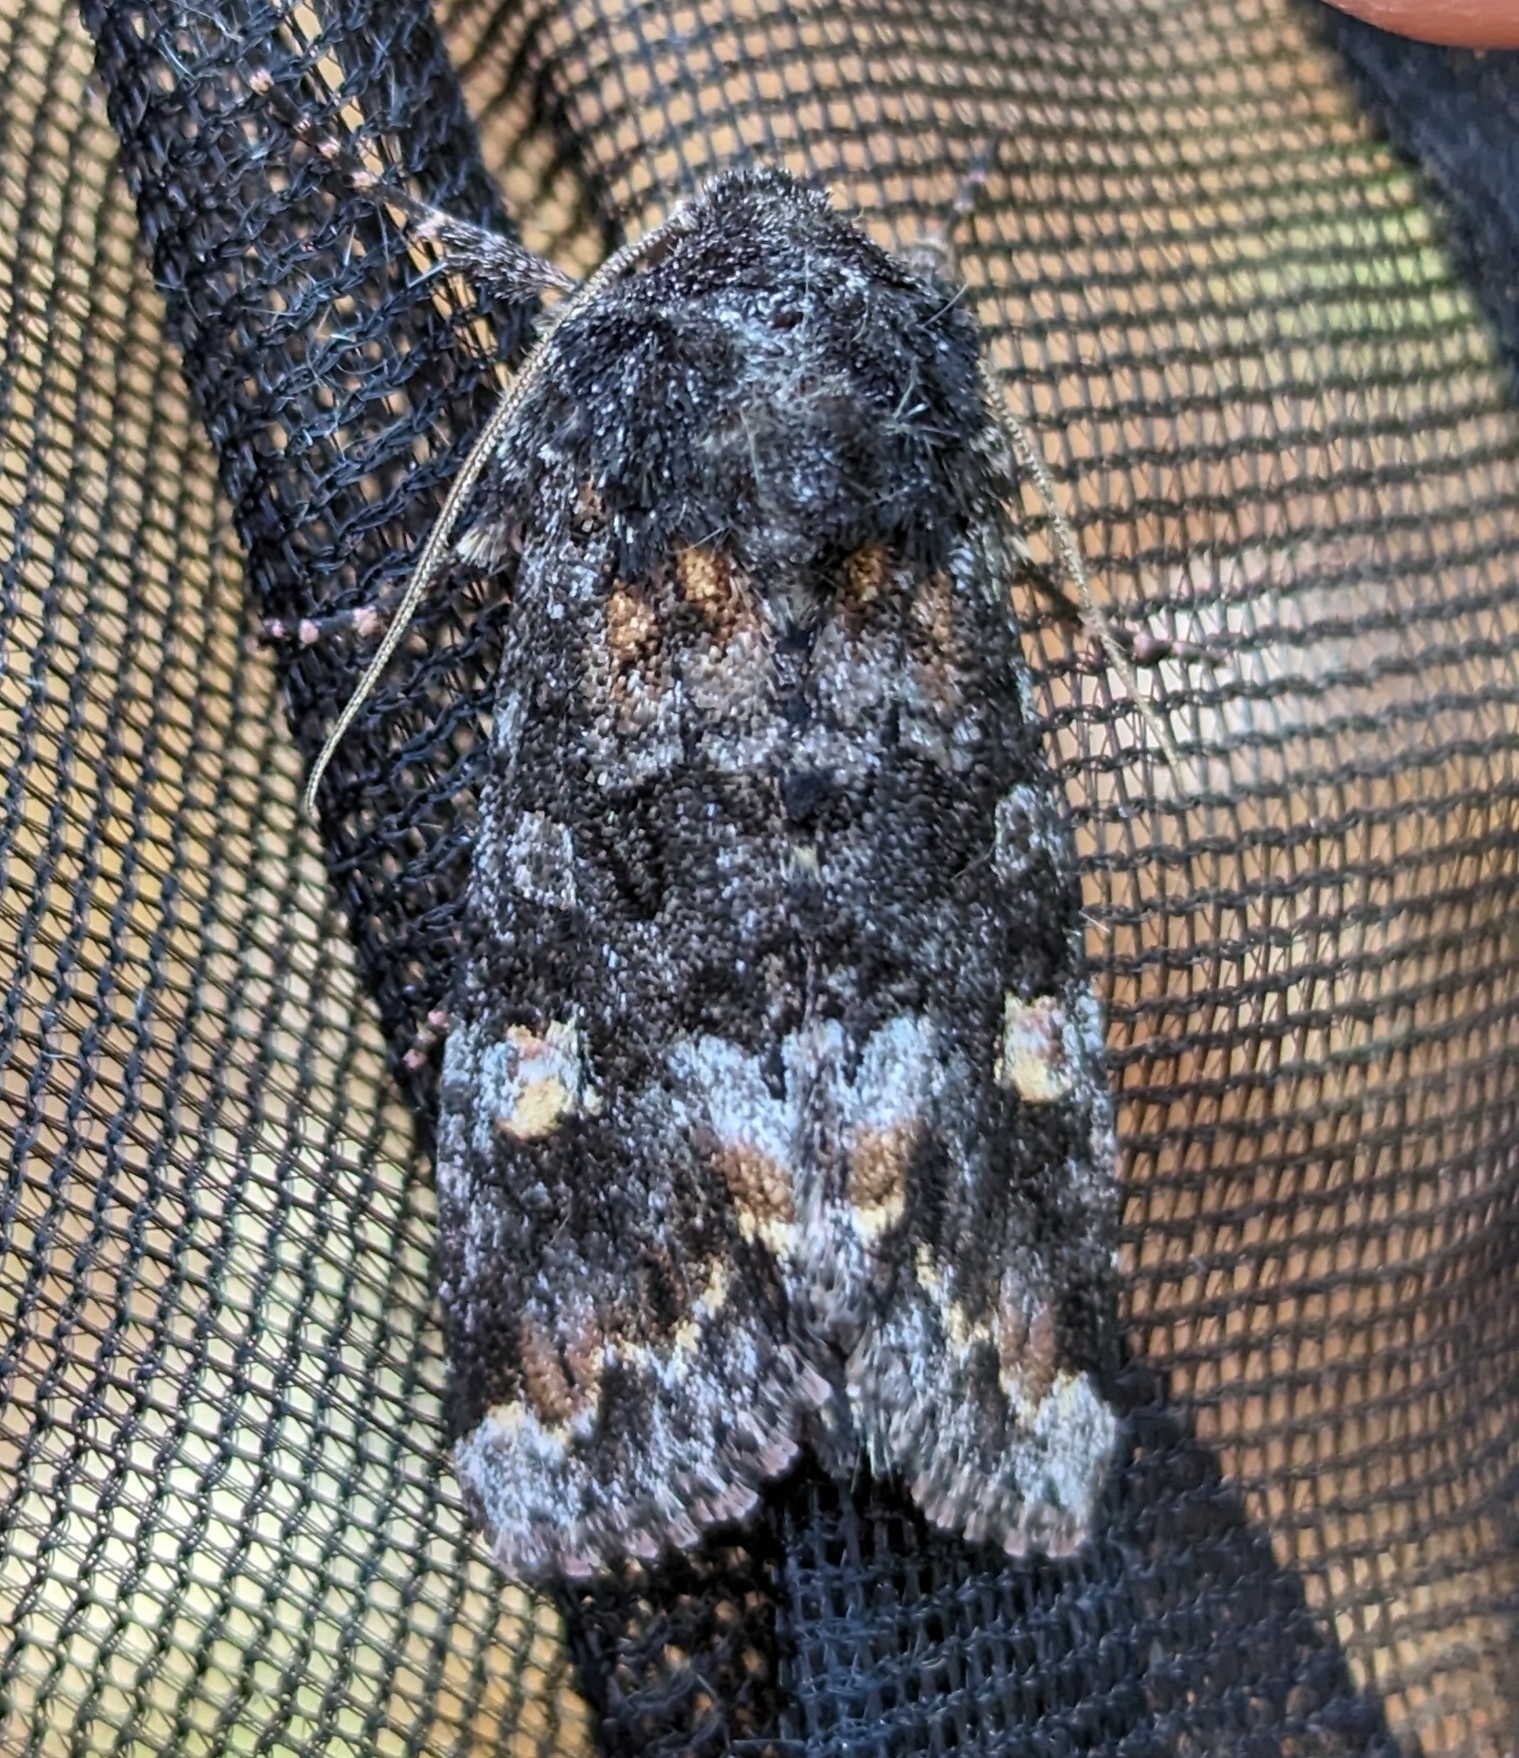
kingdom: Animalia
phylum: Arthropoda
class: Insecta
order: Lepidoptera
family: Noctuidae
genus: Spiramater
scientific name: Spiramater lutra
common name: Otter spiramater moth
